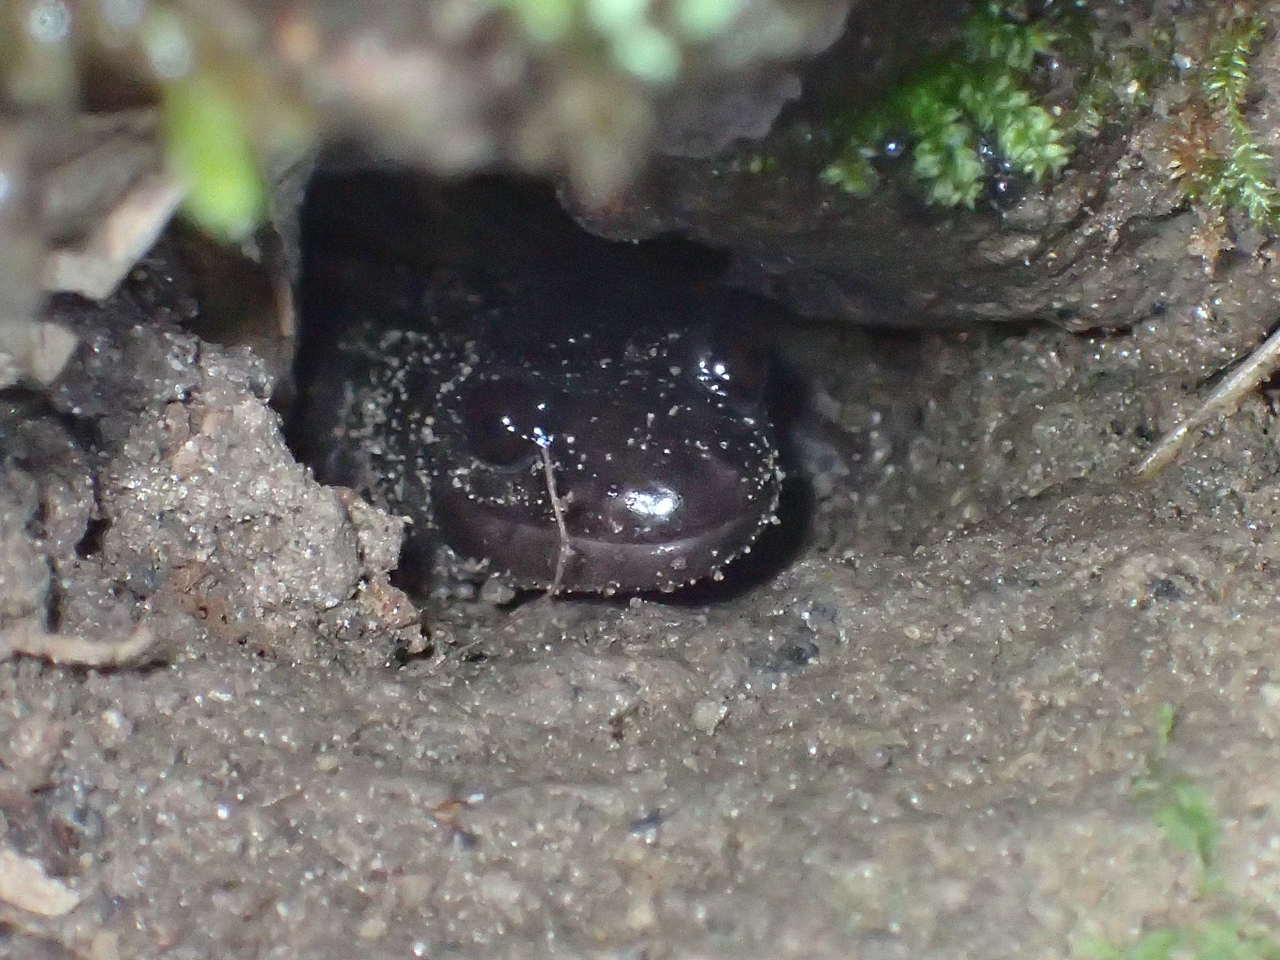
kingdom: Animalia
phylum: Chordata
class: Amphibia
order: Caudata
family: Plethodontidae
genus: Phaeognathus
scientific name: Phaeognathus hubrichti
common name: Red hills salamander
